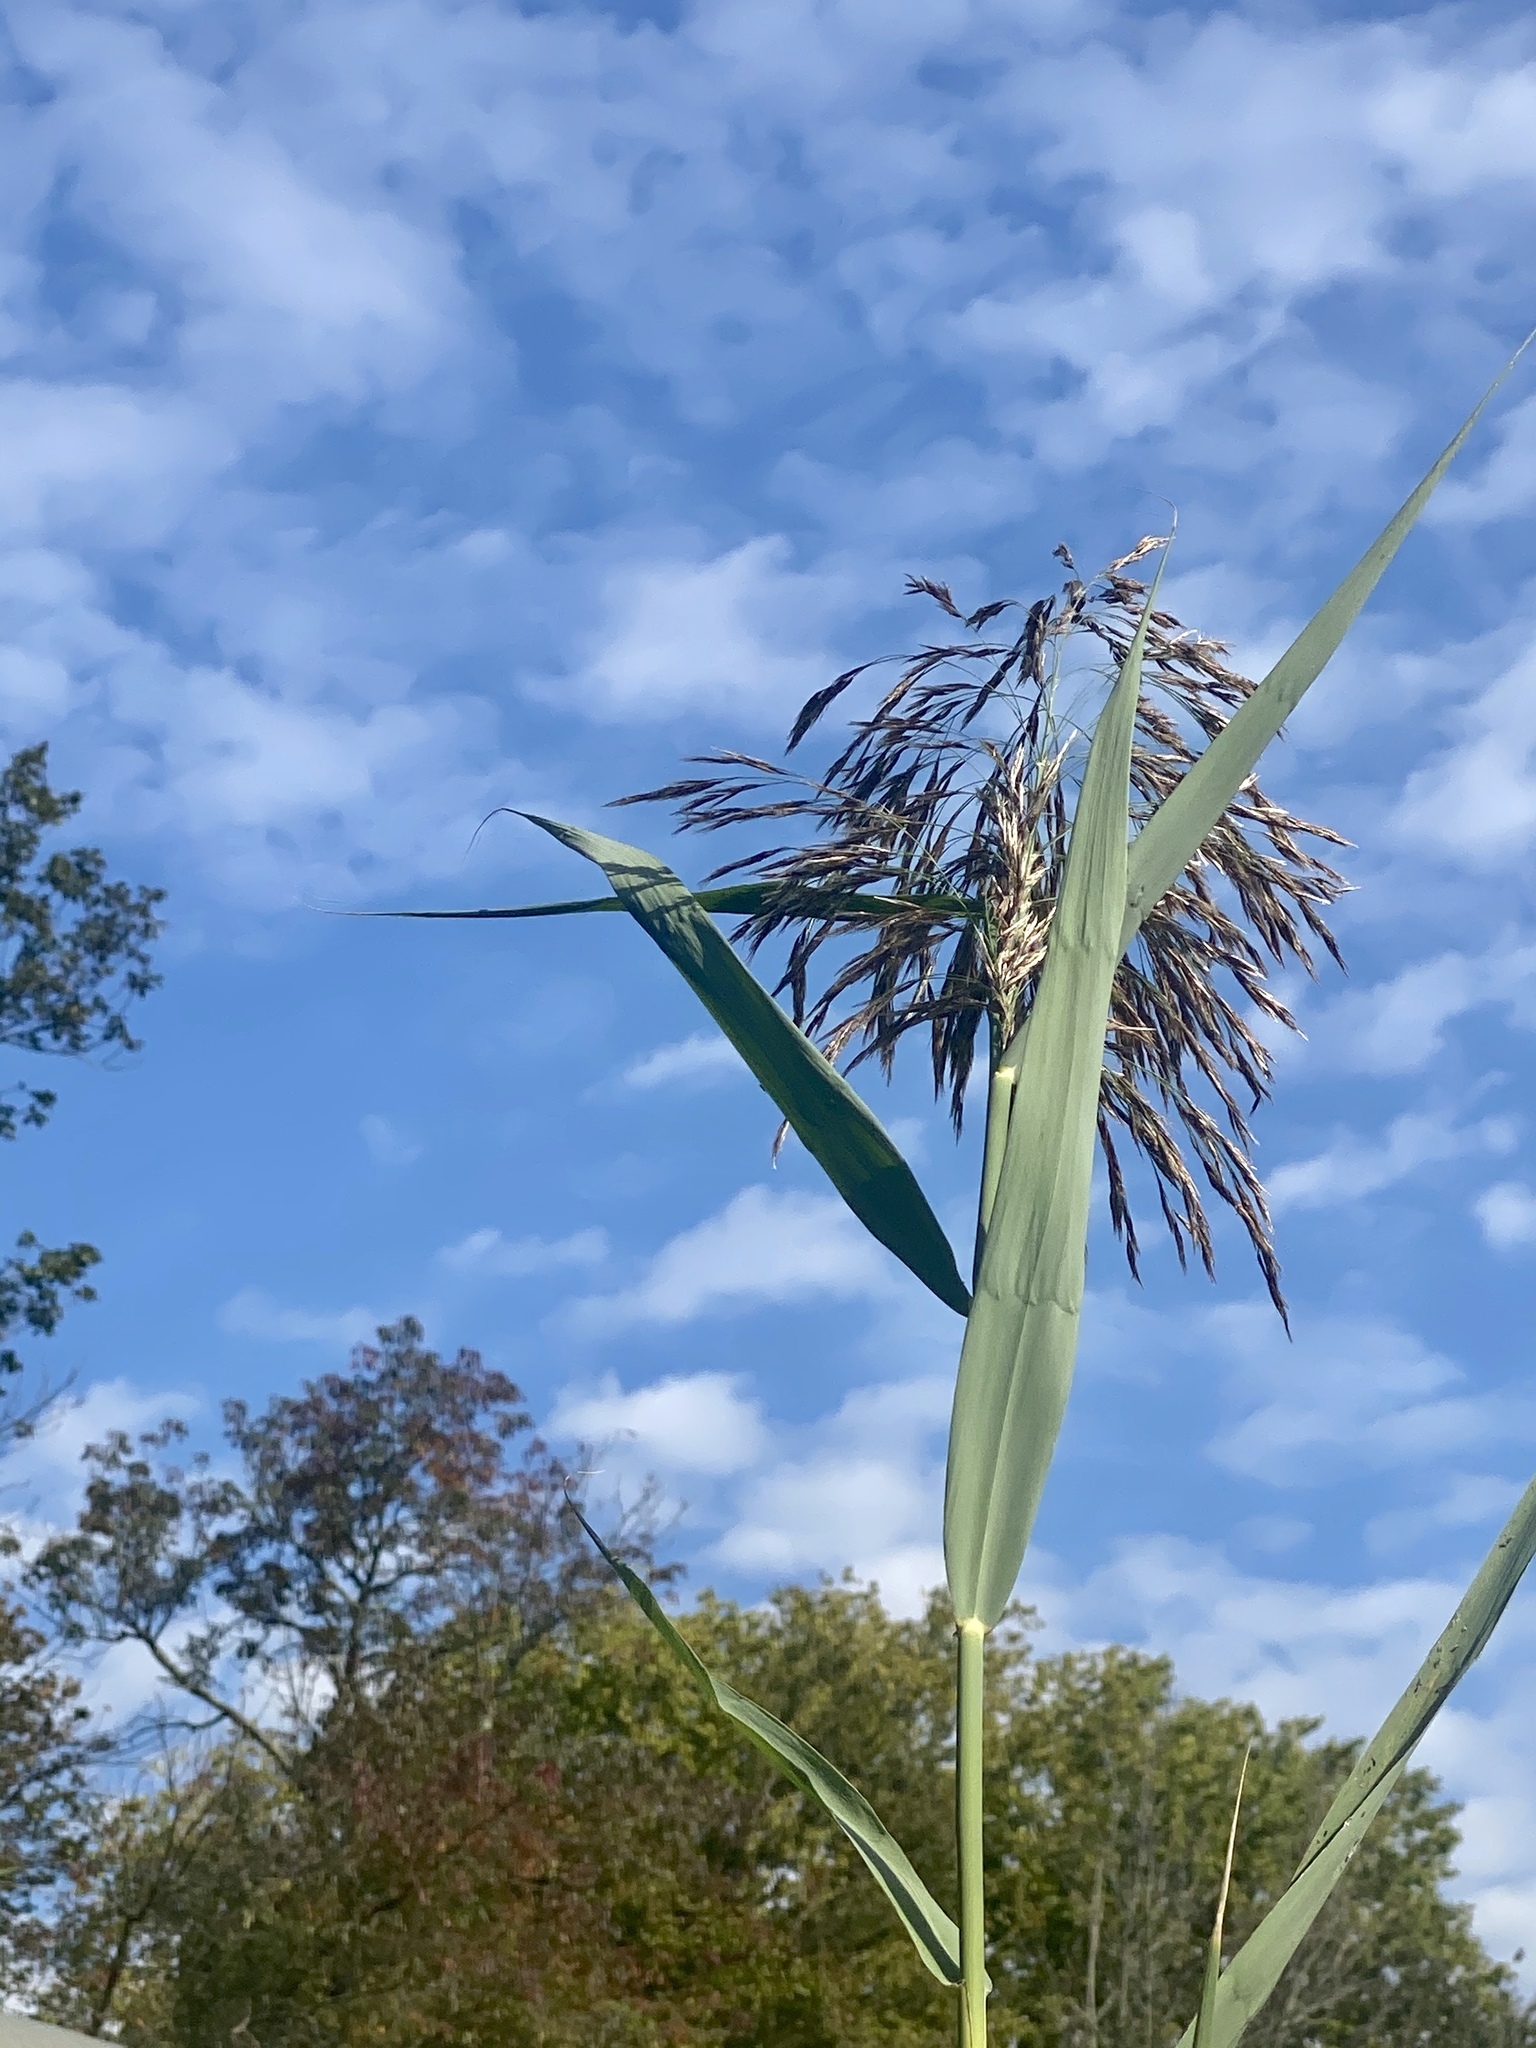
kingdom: Plantae
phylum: Tracheophyta
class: Liliopsida
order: Poales
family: Poaceae
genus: Phragmites
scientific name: Phragmites australis
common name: Common reed
